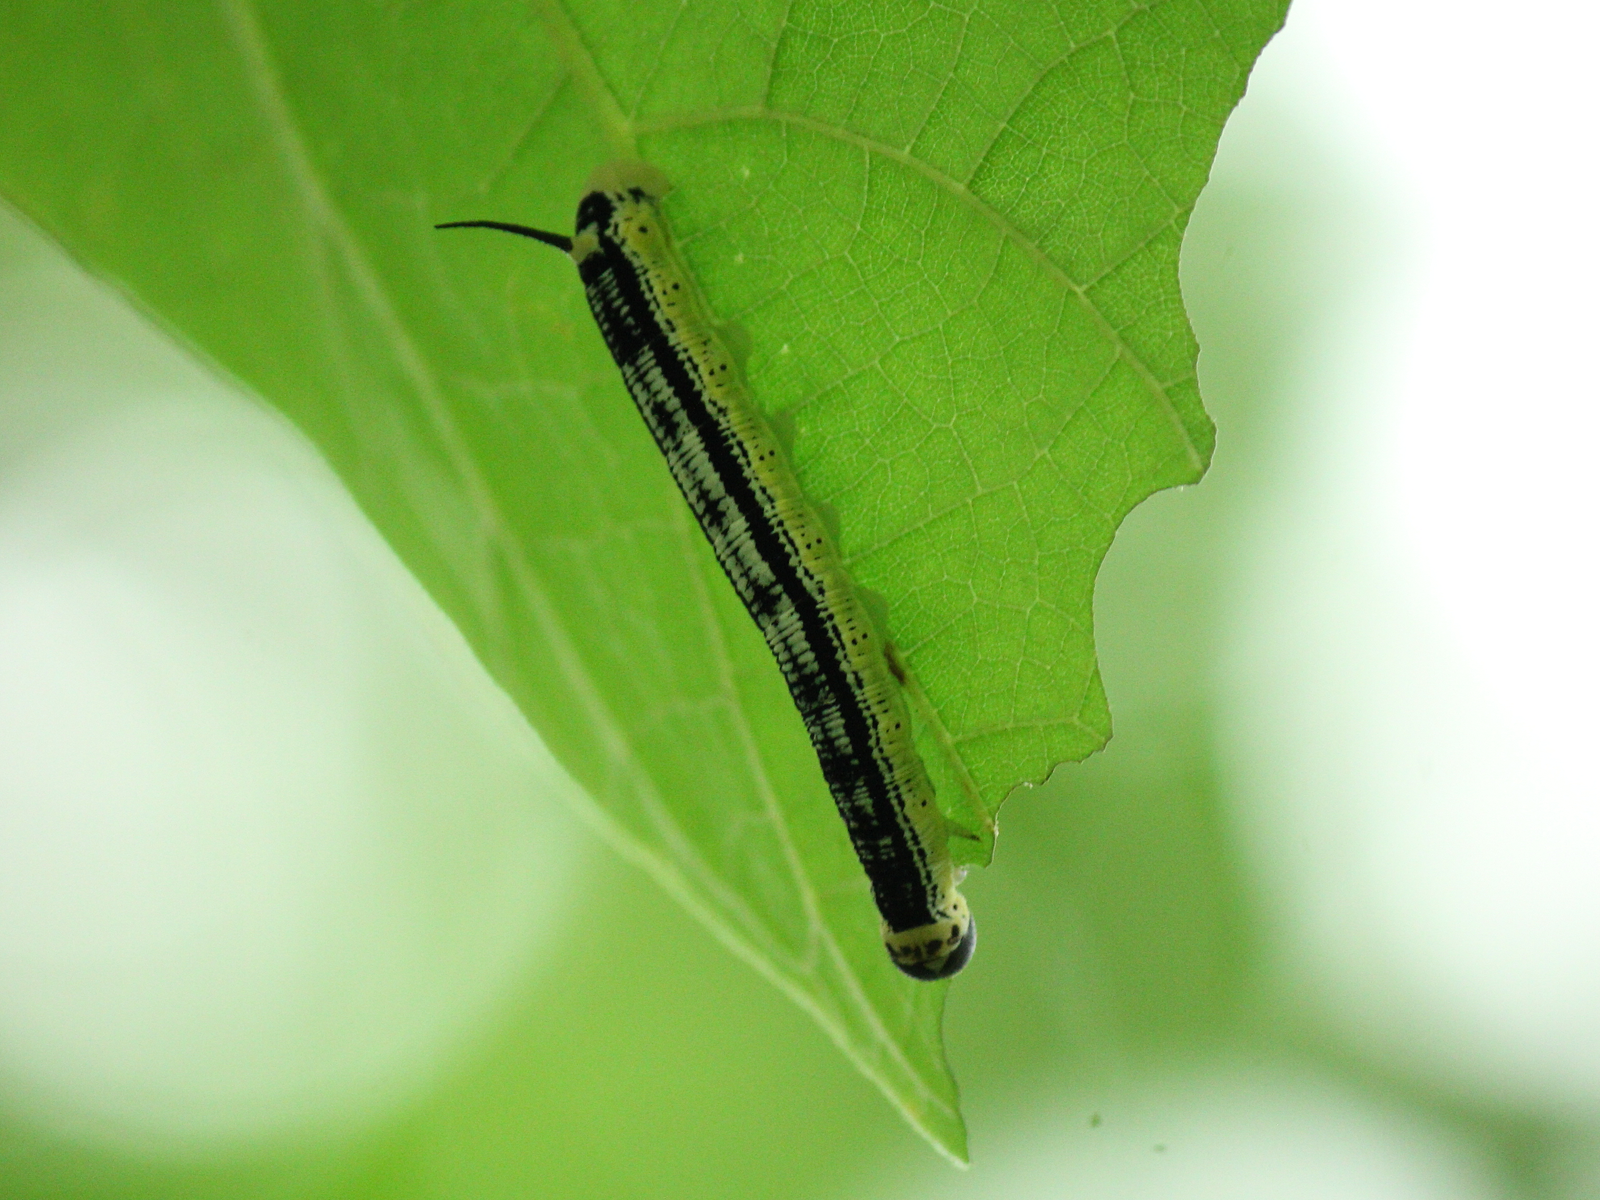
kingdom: Animalia
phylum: Arthropoda
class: Insecta
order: Lepidoptera
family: Sphingidae
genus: Ceratomia
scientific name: Ceratomia catalpae
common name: Catalpa hornworm
